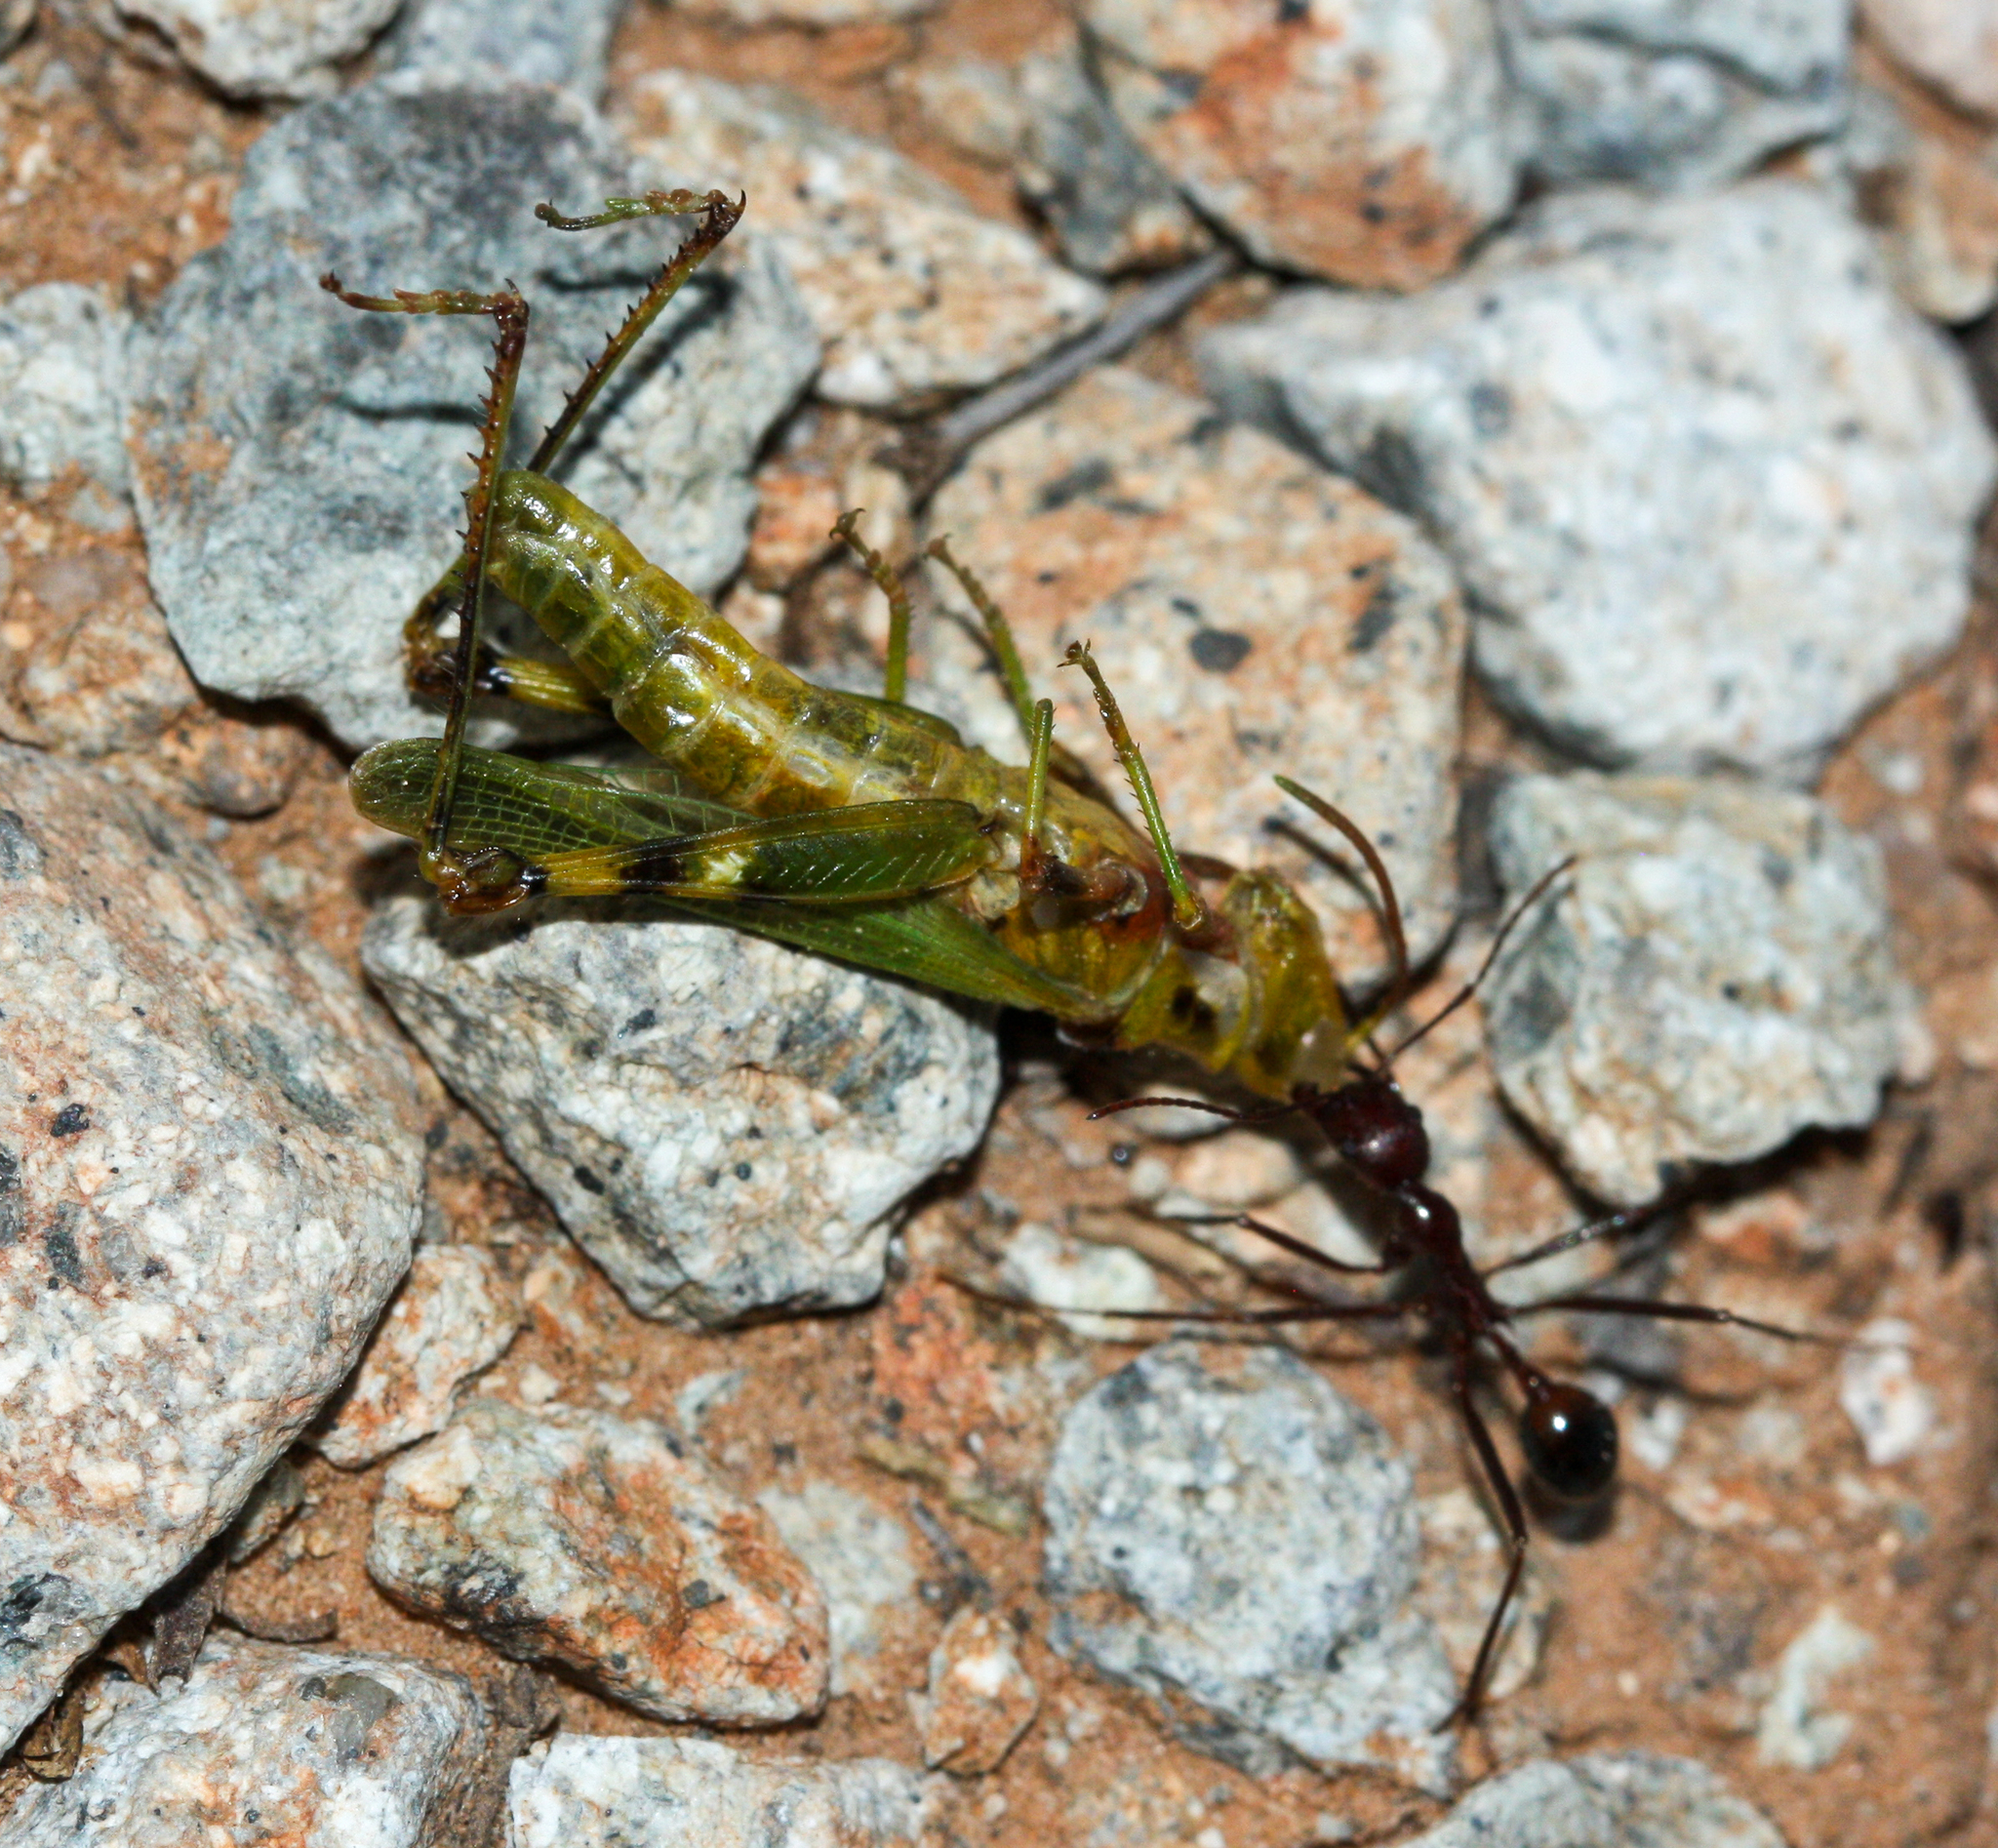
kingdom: Animalia
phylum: Arthropoda
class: Insecta
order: Hymenoptera
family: Formicidae
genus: Novomessor
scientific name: Novomessor cockerelli
